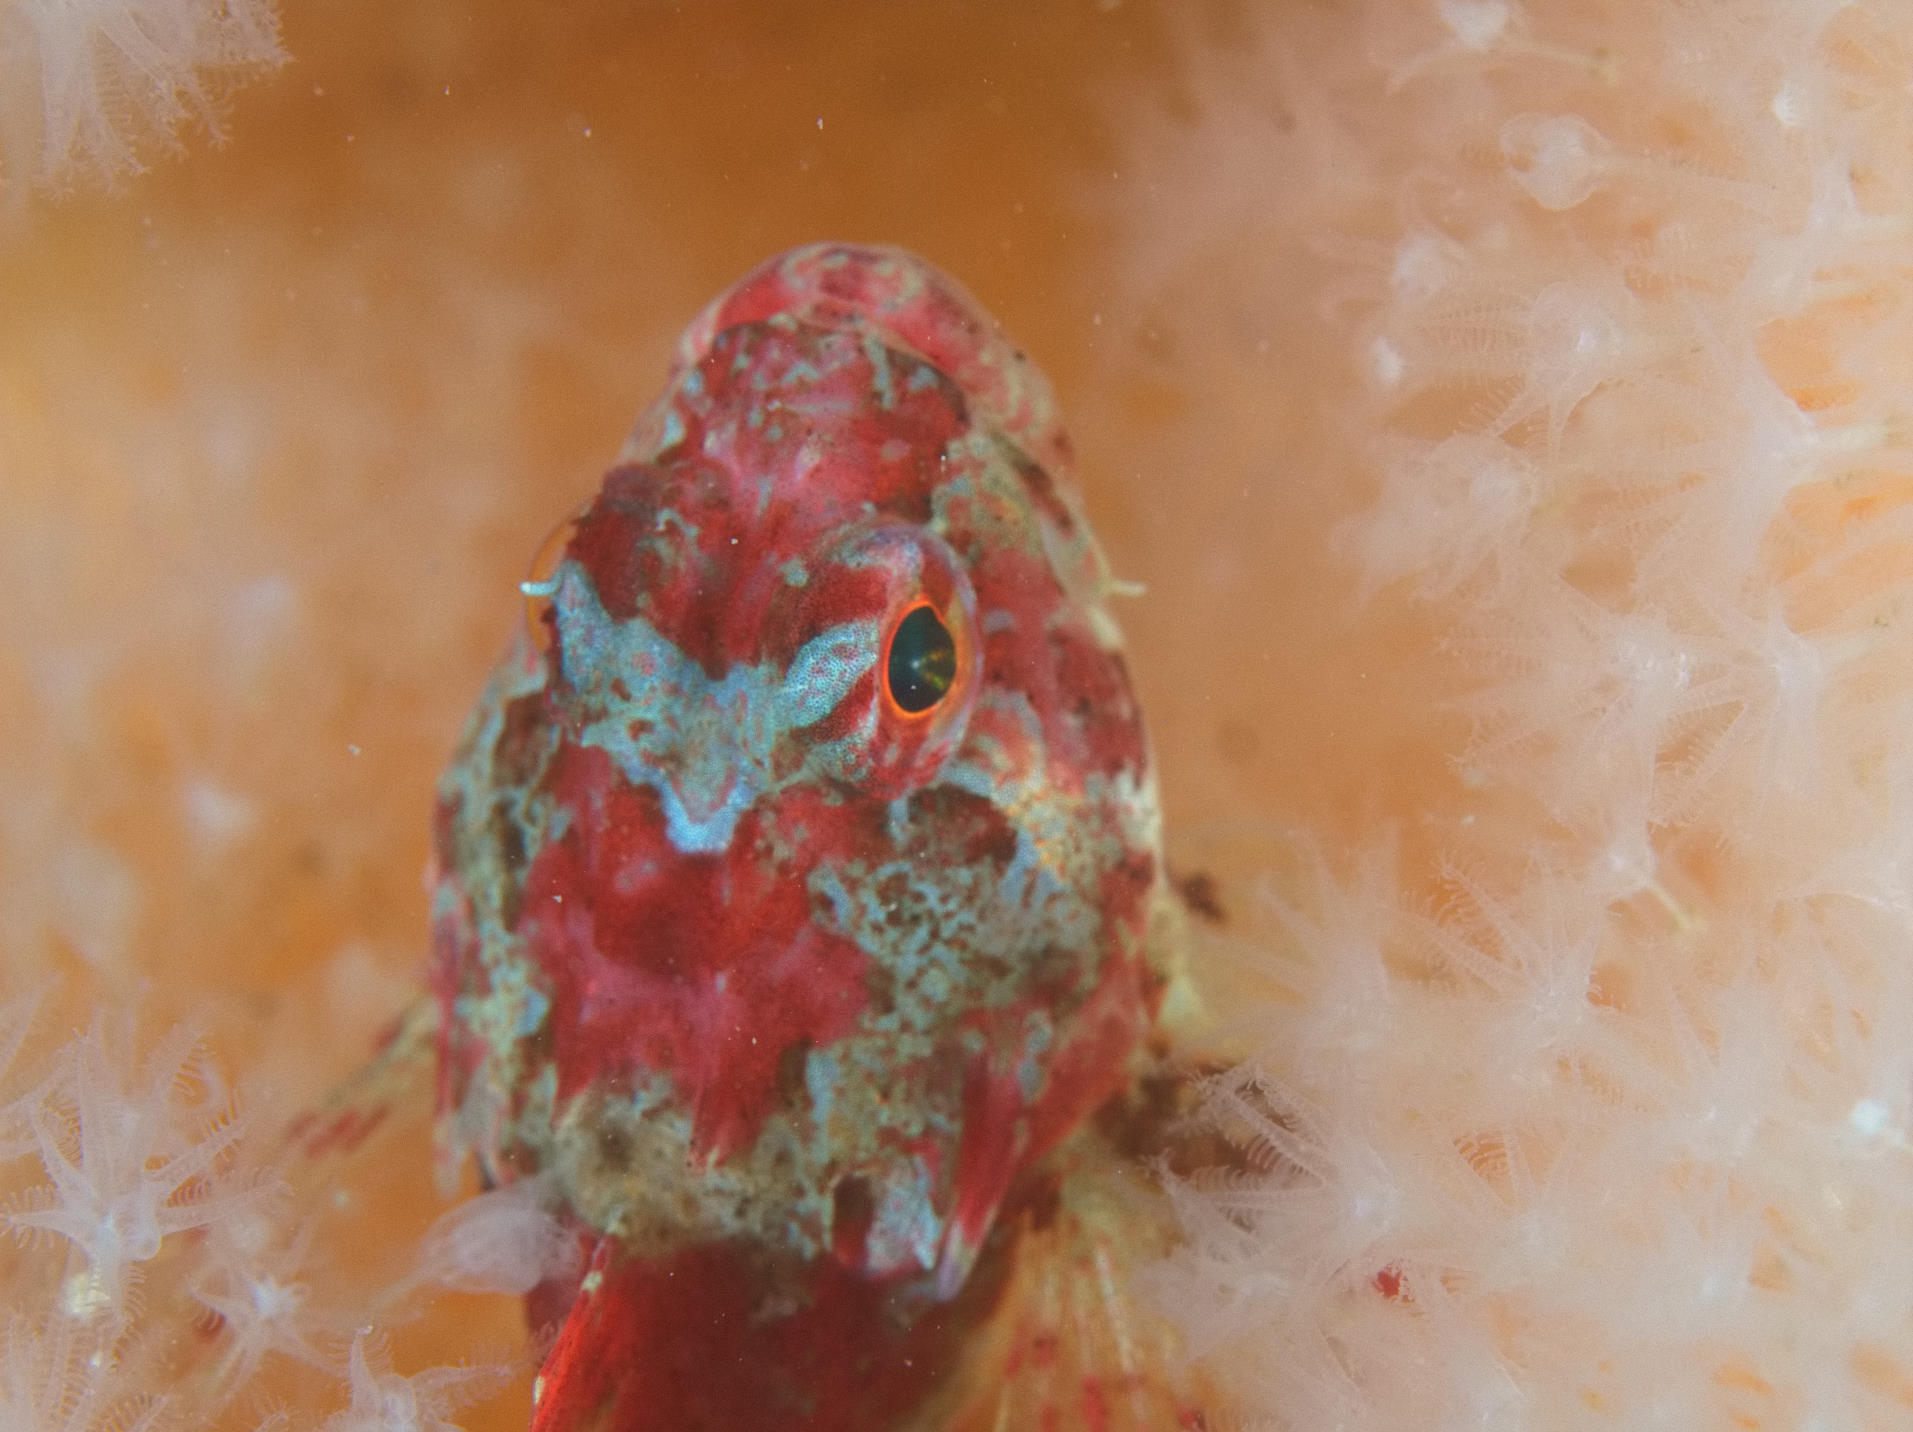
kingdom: Animalia
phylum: Chordata
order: Scorpaeniformes
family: Cottidae
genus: Taurulus
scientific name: Taurulus bubalis
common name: Sea scorpion
